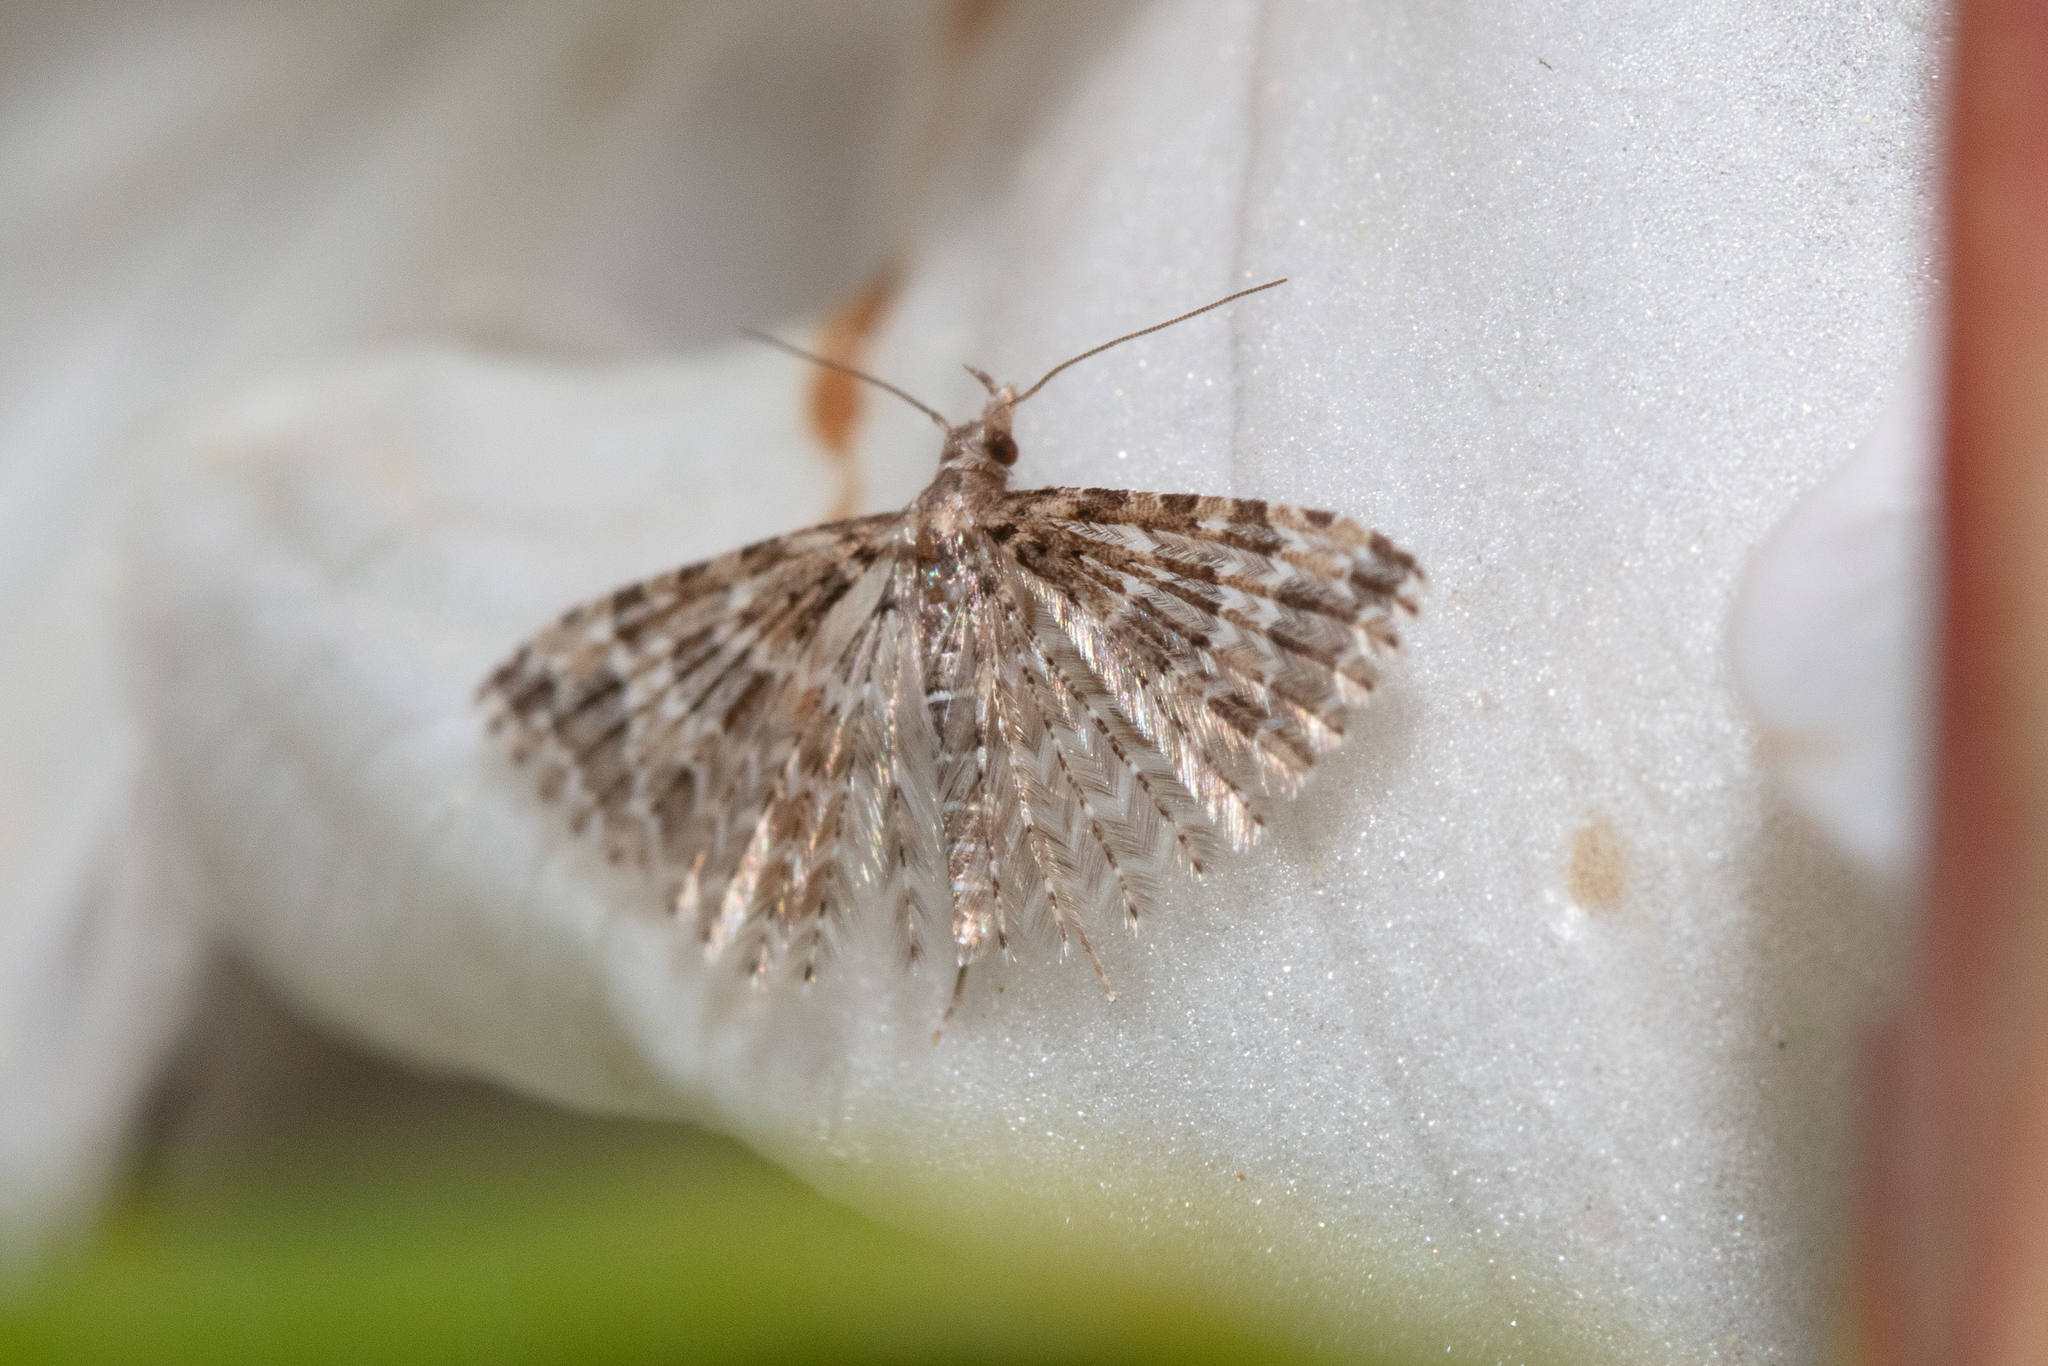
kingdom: Animalia
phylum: Arthropoda
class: Insecta
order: Lepidoptera
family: Alucitidae
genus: Alucita
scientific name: Alucita montana
